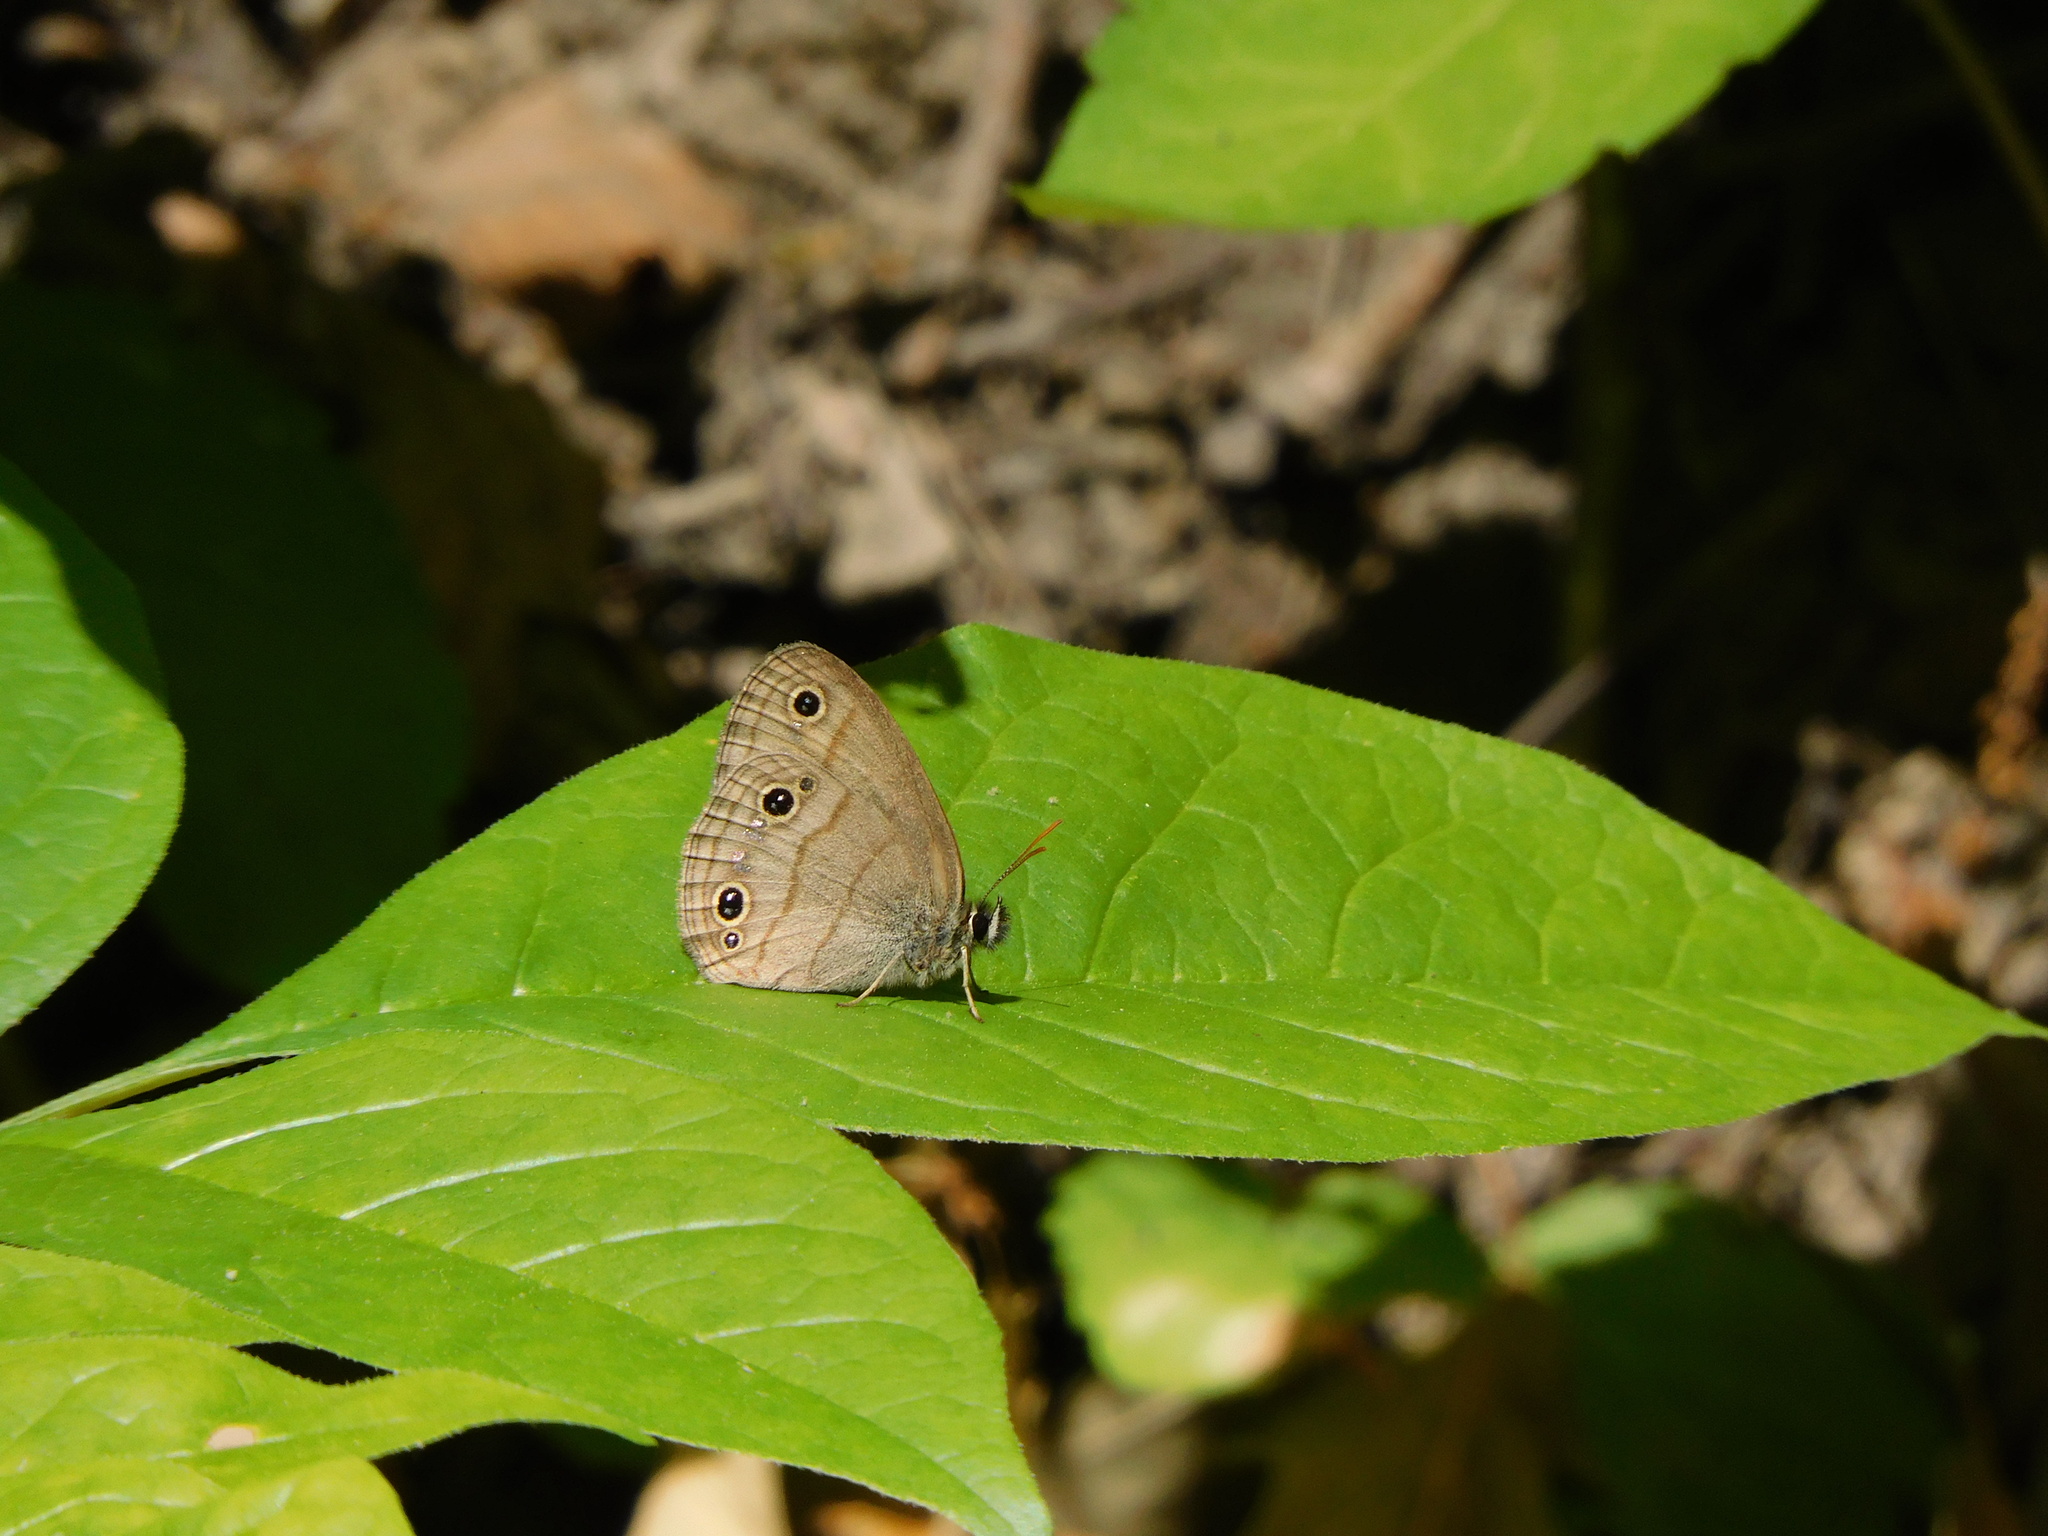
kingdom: Animalia
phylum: Arthropoda
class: Insecta
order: Lepidoptera
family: Nymphalidae
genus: Euptychia
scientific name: Euptychia cymela
